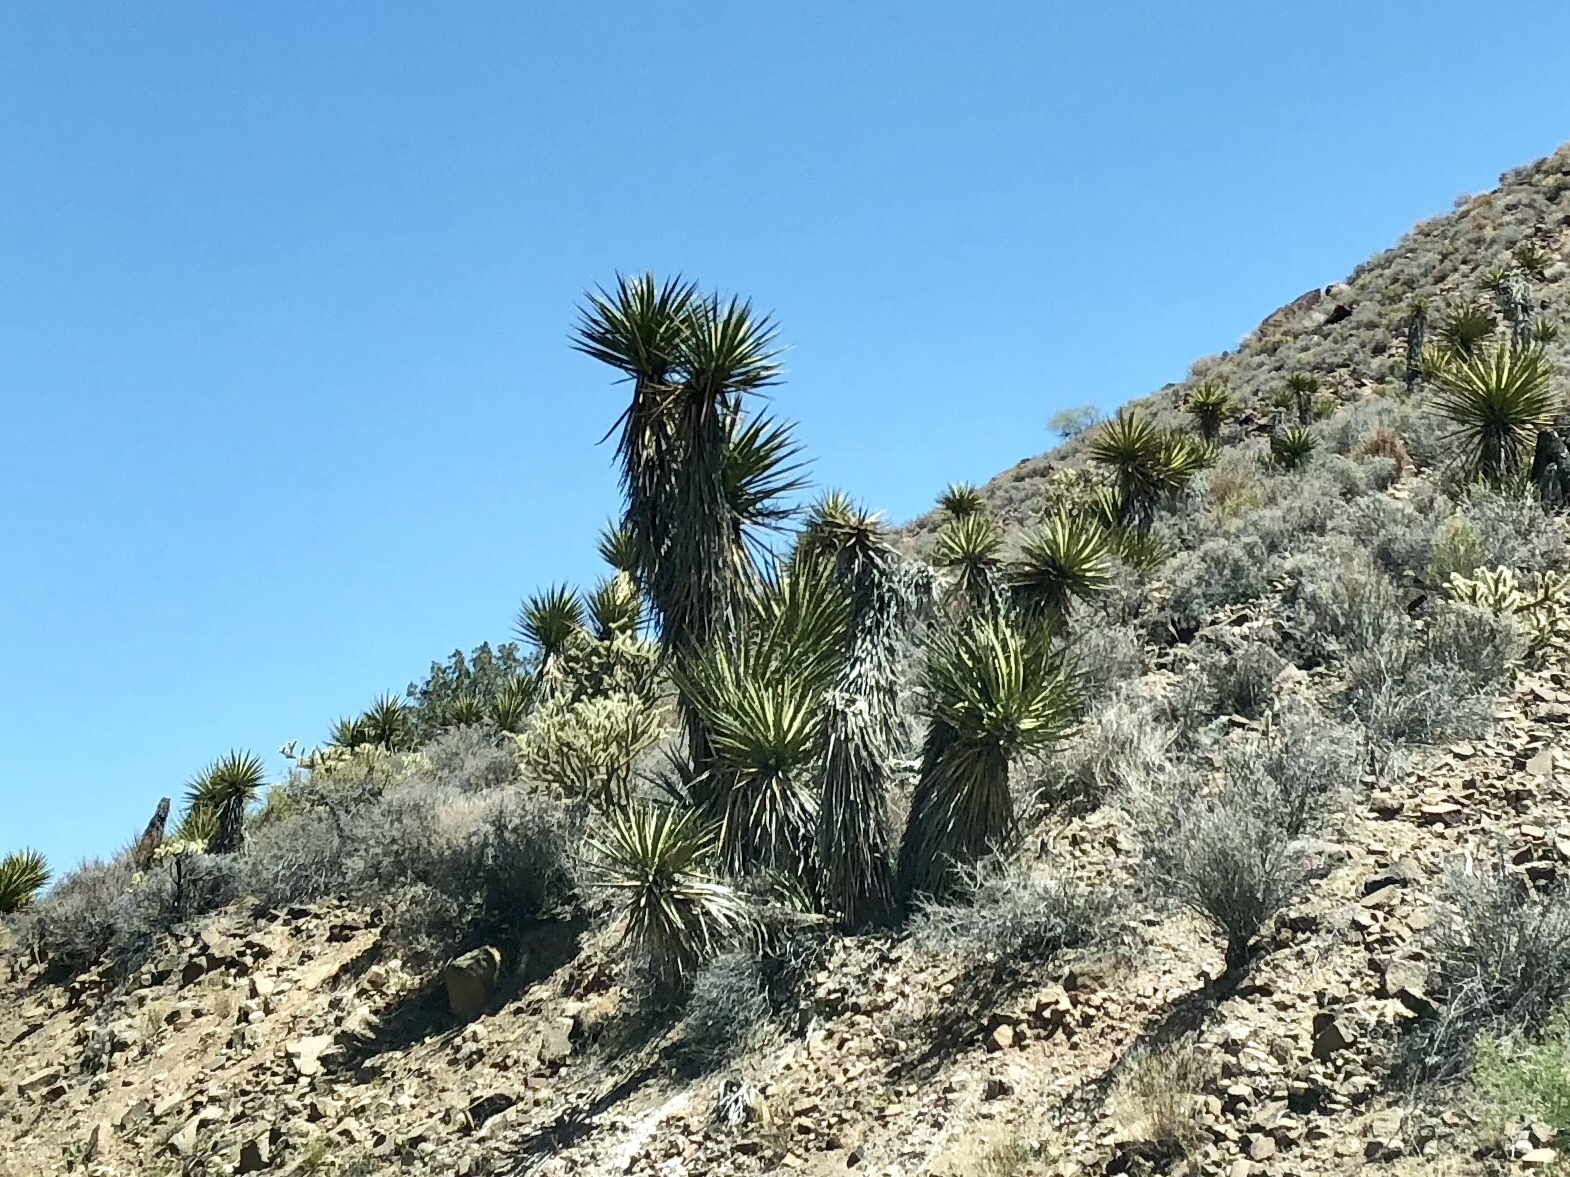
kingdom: Plantae
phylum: Tracheophyta
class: Liliopsida
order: Asparagales
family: Asparagaceae
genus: Yucca
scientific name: Yucca schidigera
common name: Mojave yucca
